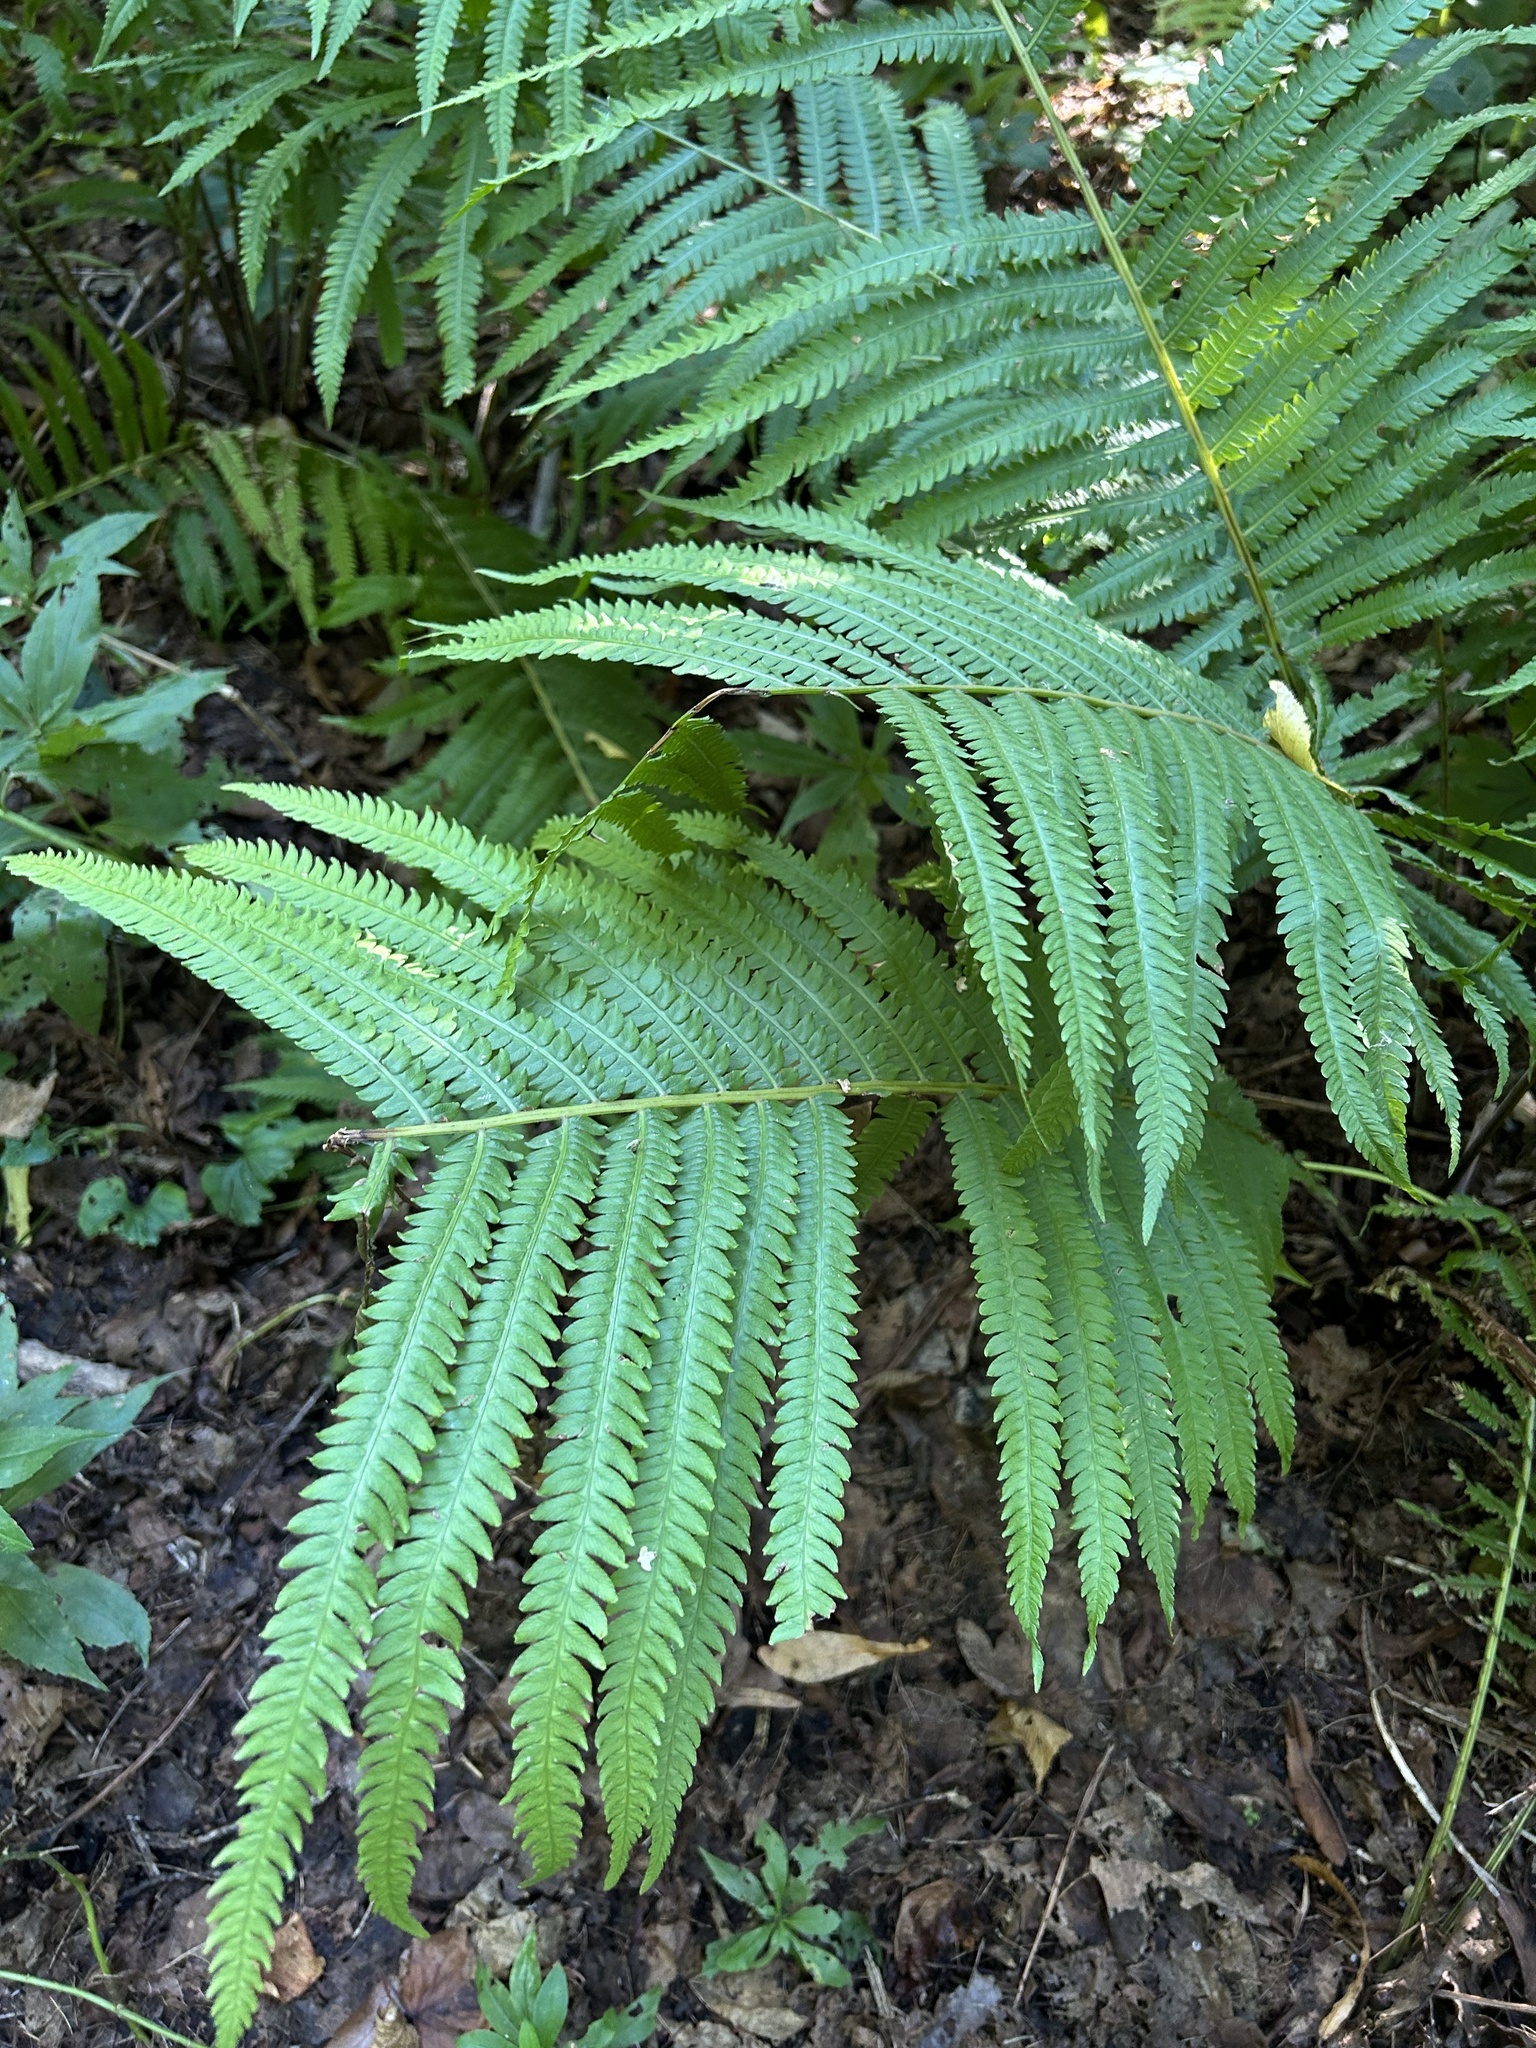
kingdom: Plantae
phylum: Tracheophyta
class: Polypodiopsida
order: Polypodiales
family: Onocleaceae
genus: Matteuccia
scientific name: Matteuccia struthiopteris
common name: Ostrich fern
